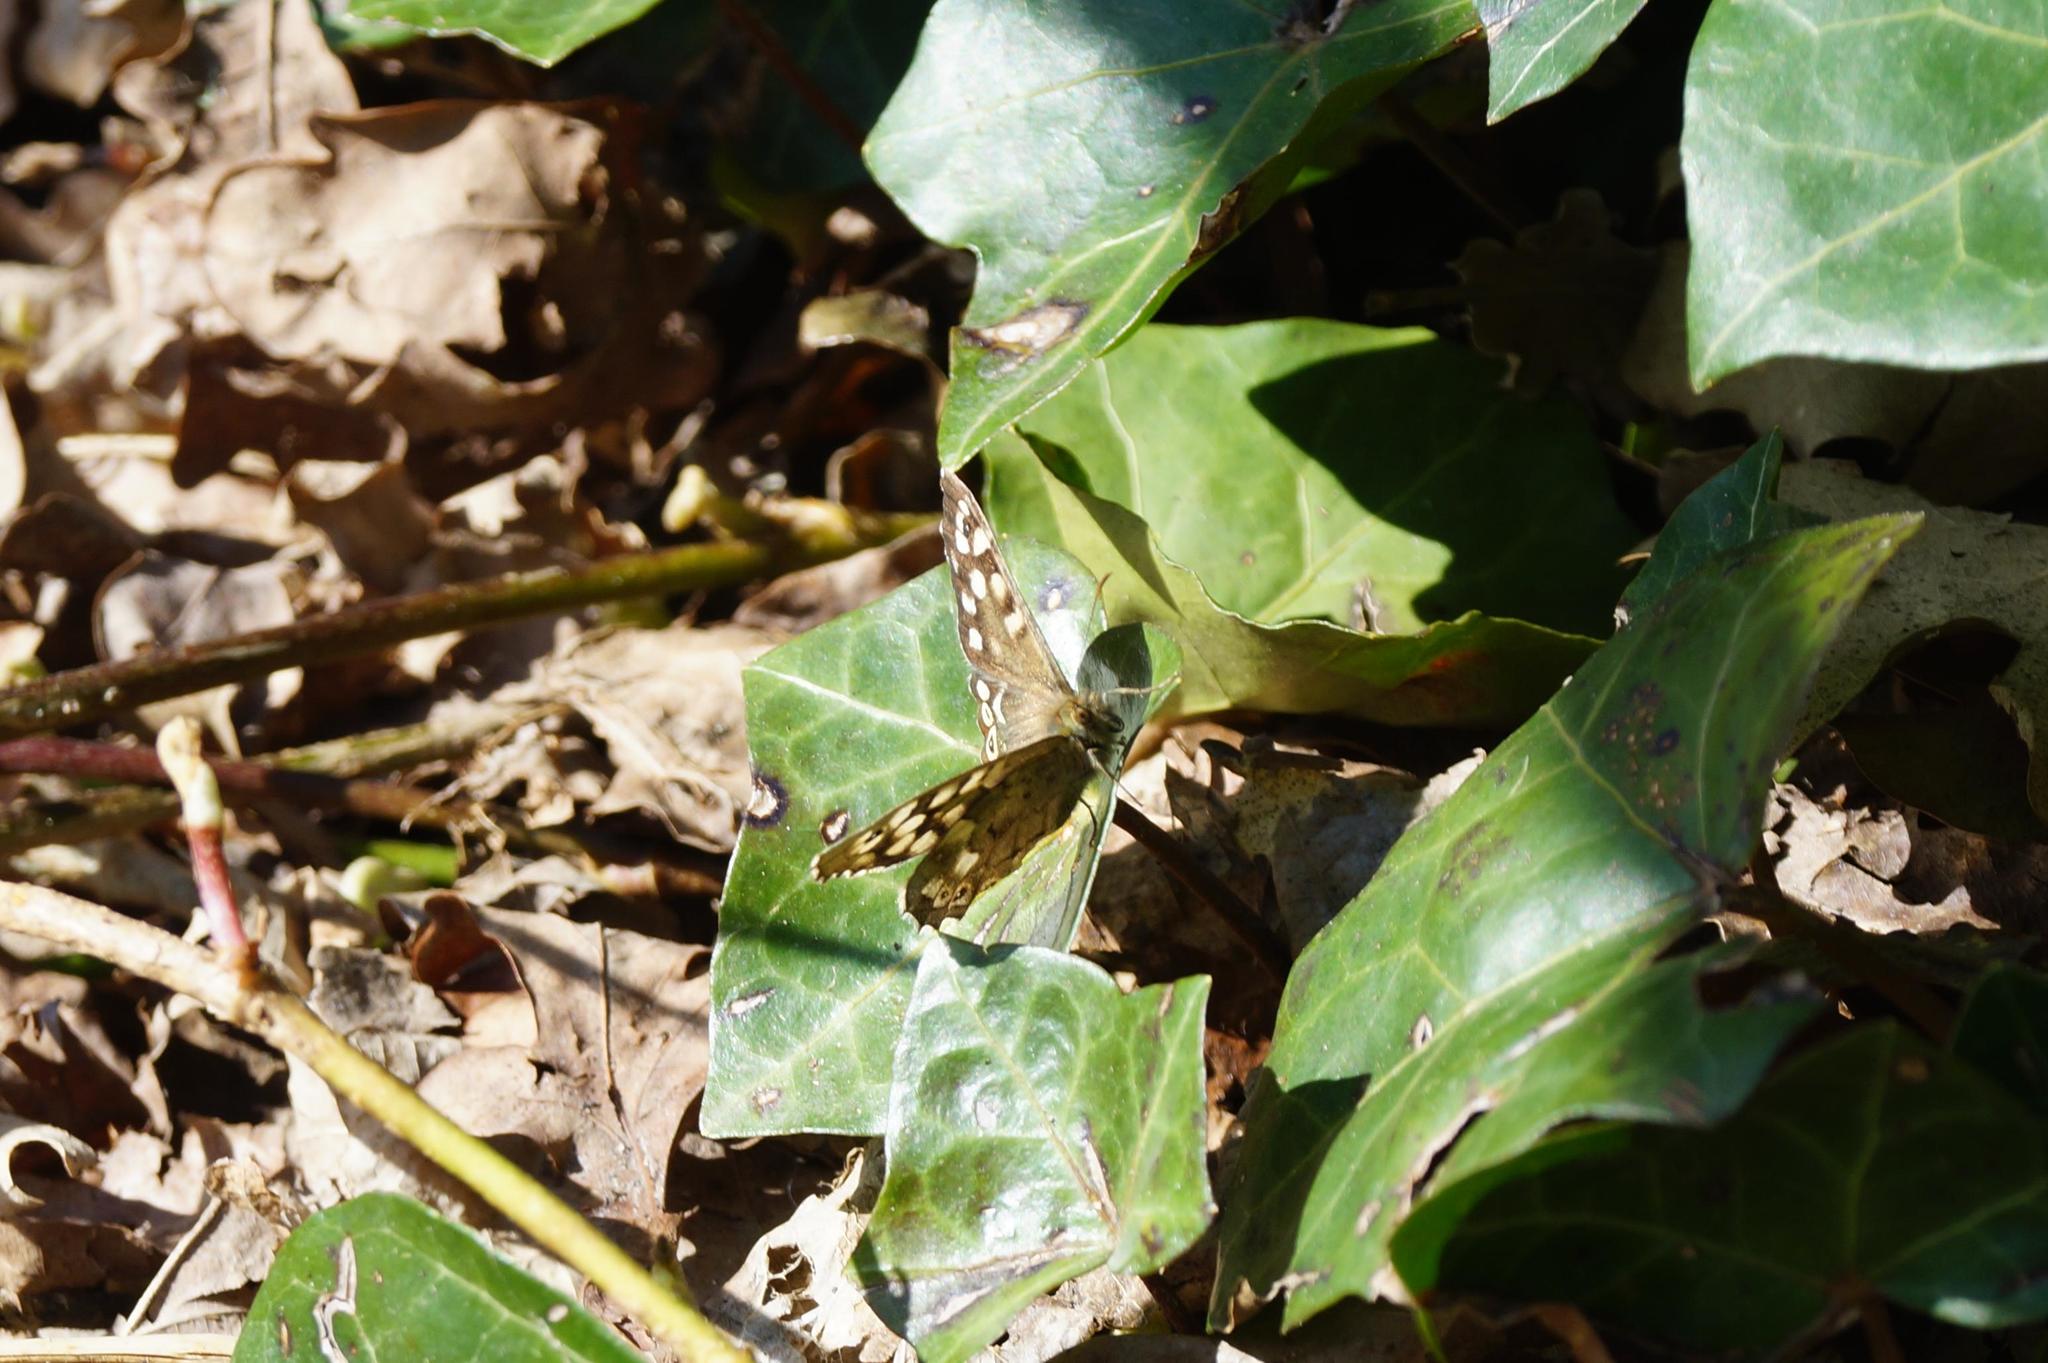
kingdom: Animalia
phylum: Arthropoda
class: Insecta
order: Lepidoptera
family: Nymphalidae
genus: Pararge
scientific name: Pararge aegeria
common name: Speckled wood
